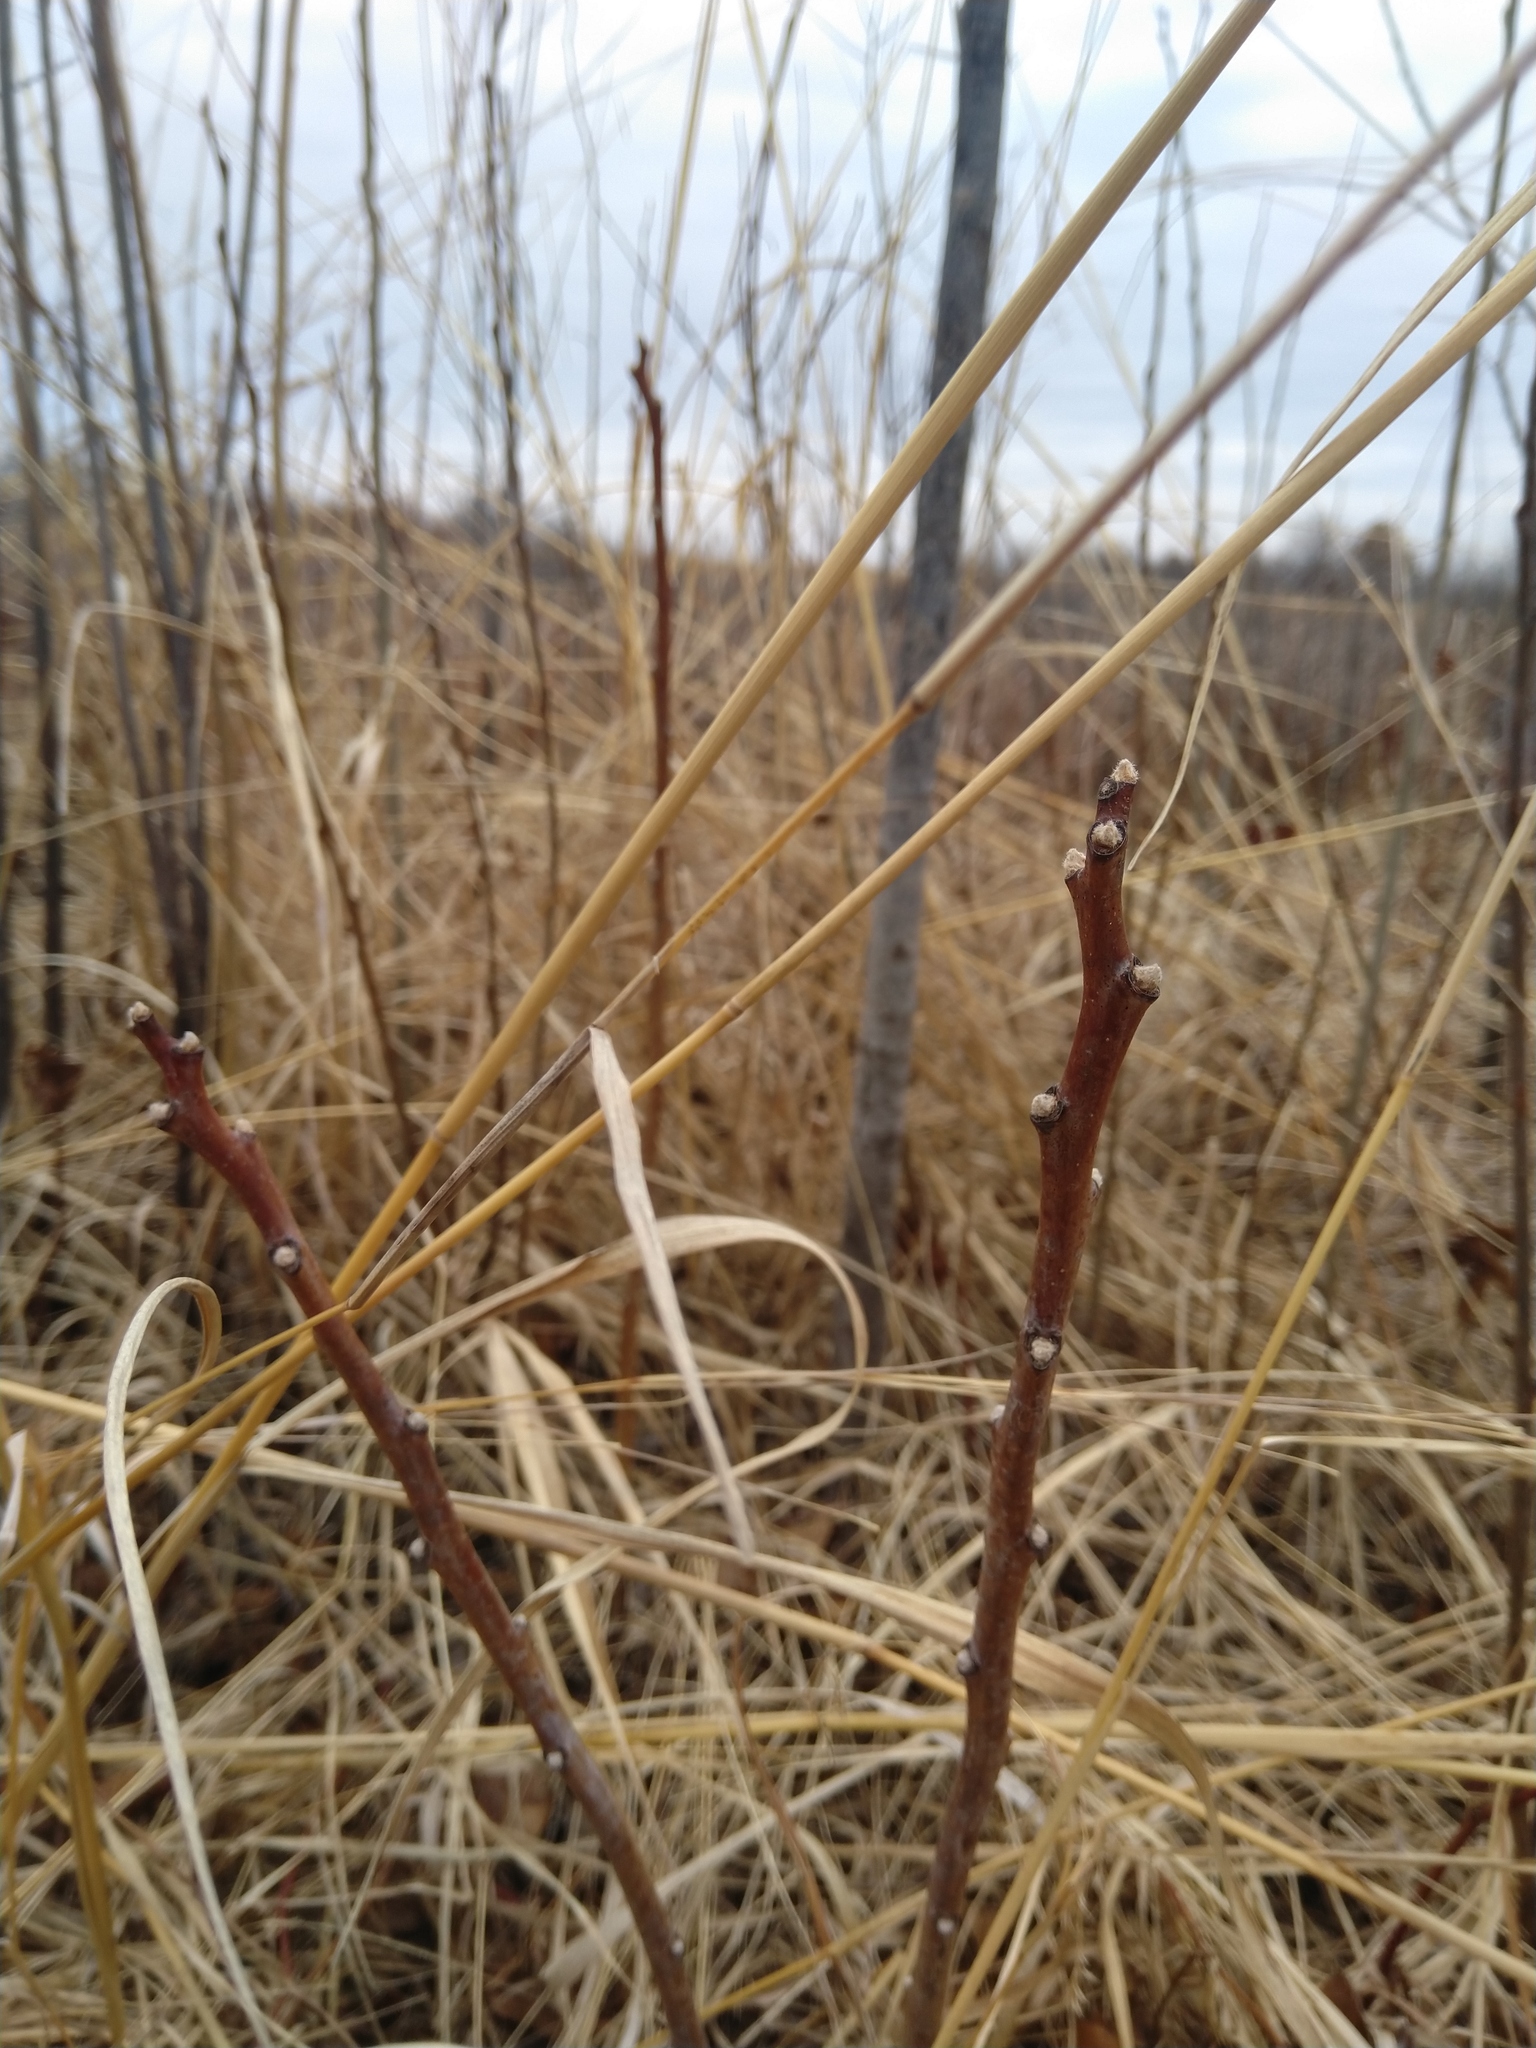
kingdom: Plantae
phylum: Tracheophyta
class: Magnoliopsida
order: Sapindales
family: Anacardiaceae
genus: Rhus
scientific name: Rhus glabra
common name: Scarlet sumac
